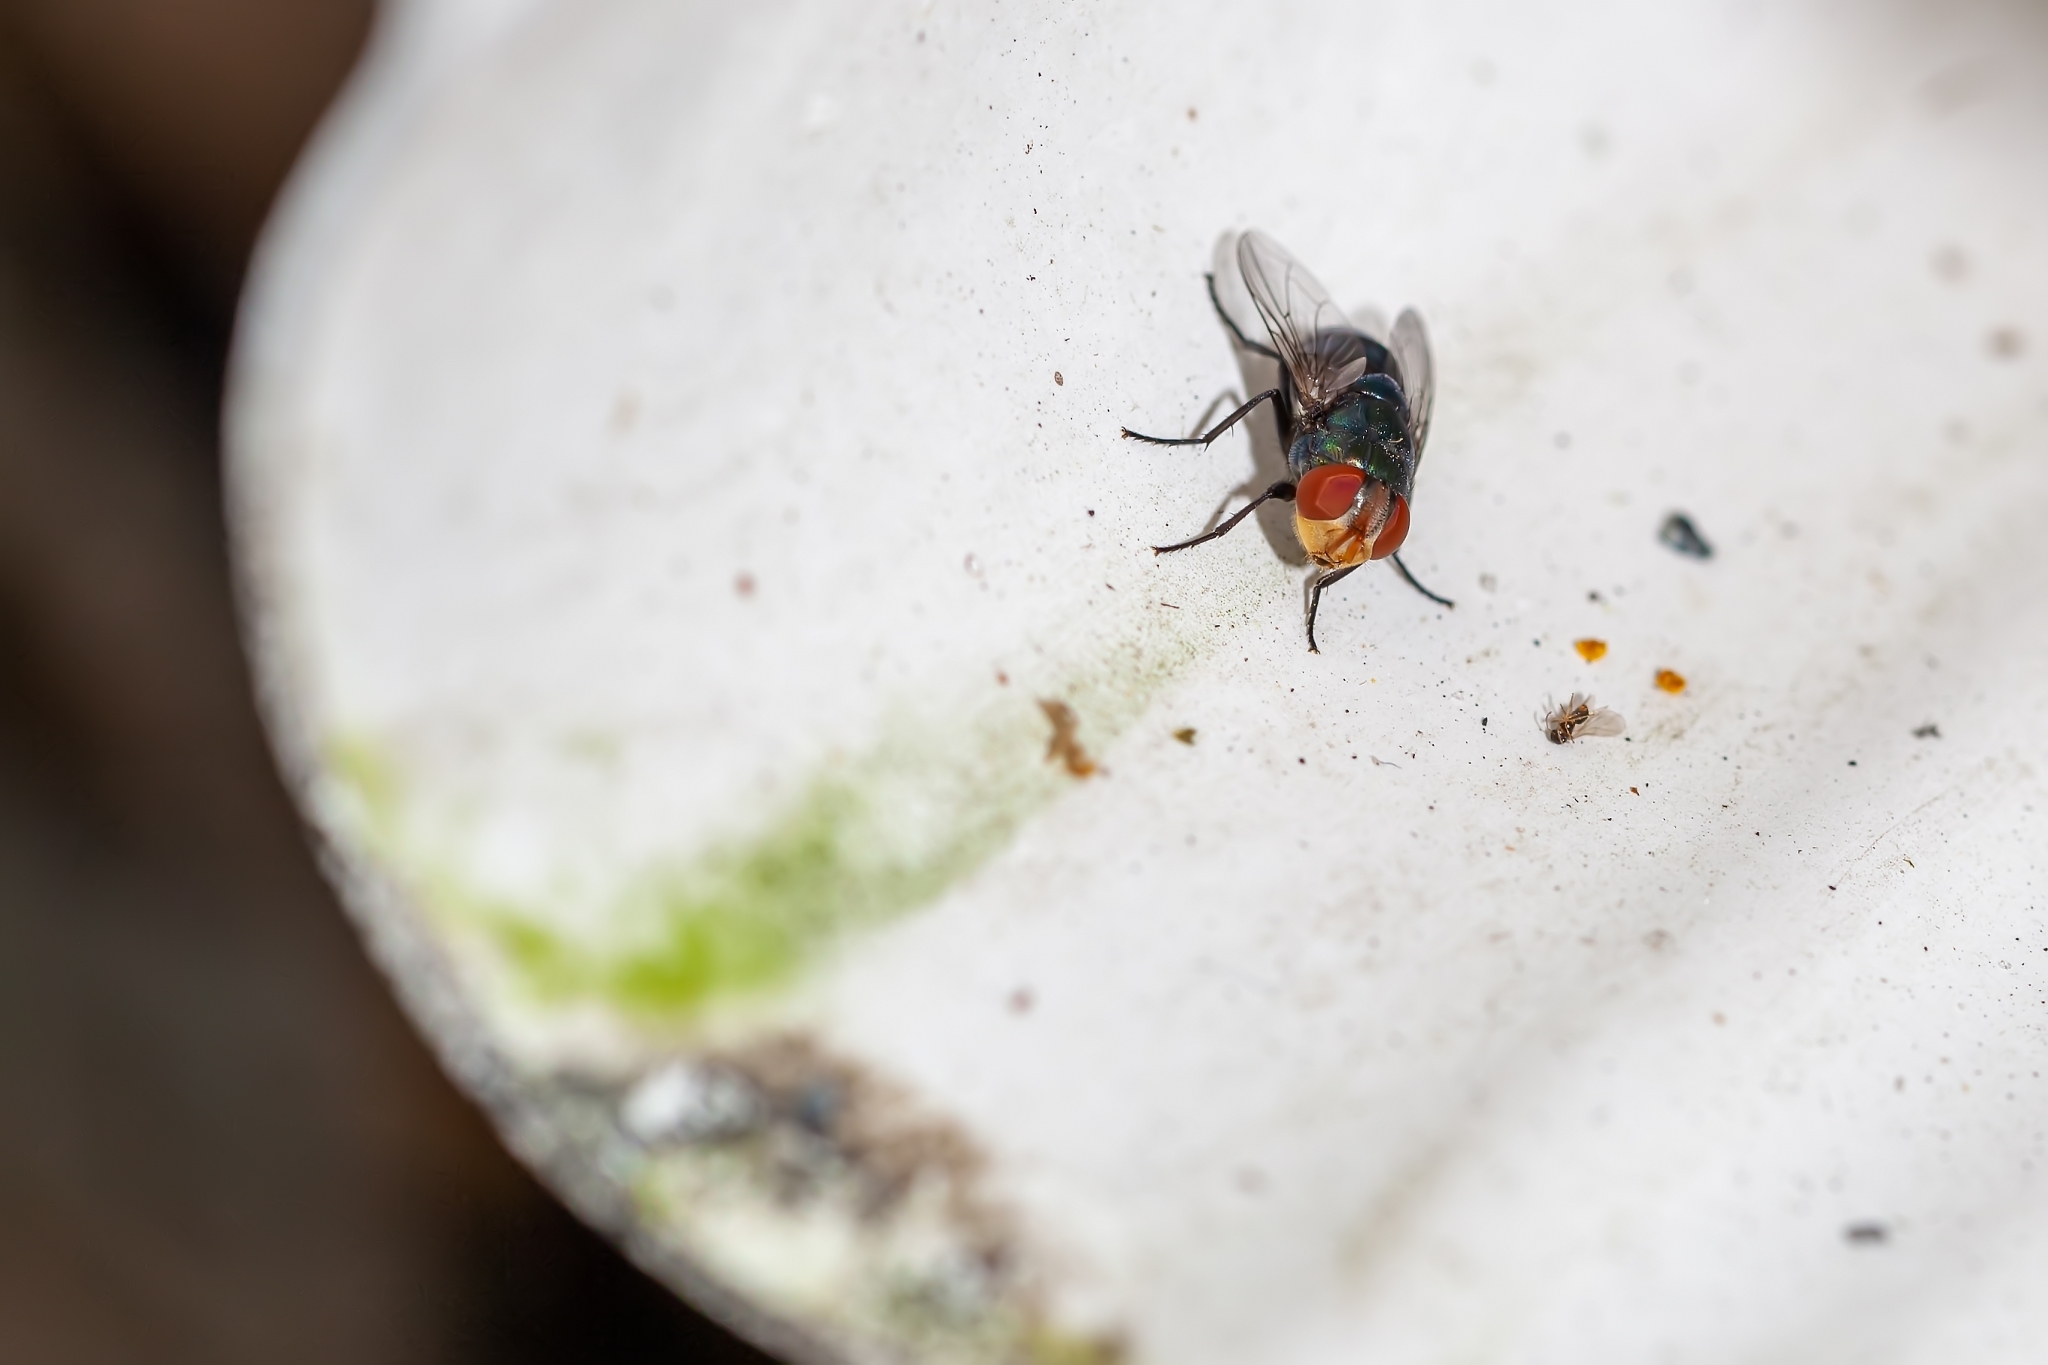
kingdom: Animalia
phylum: Arthropoda
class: Insecta
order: Diptera
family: Calliphoridae
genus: Chrysomya
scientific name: Chrysomya megacephala
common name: Blow fly
